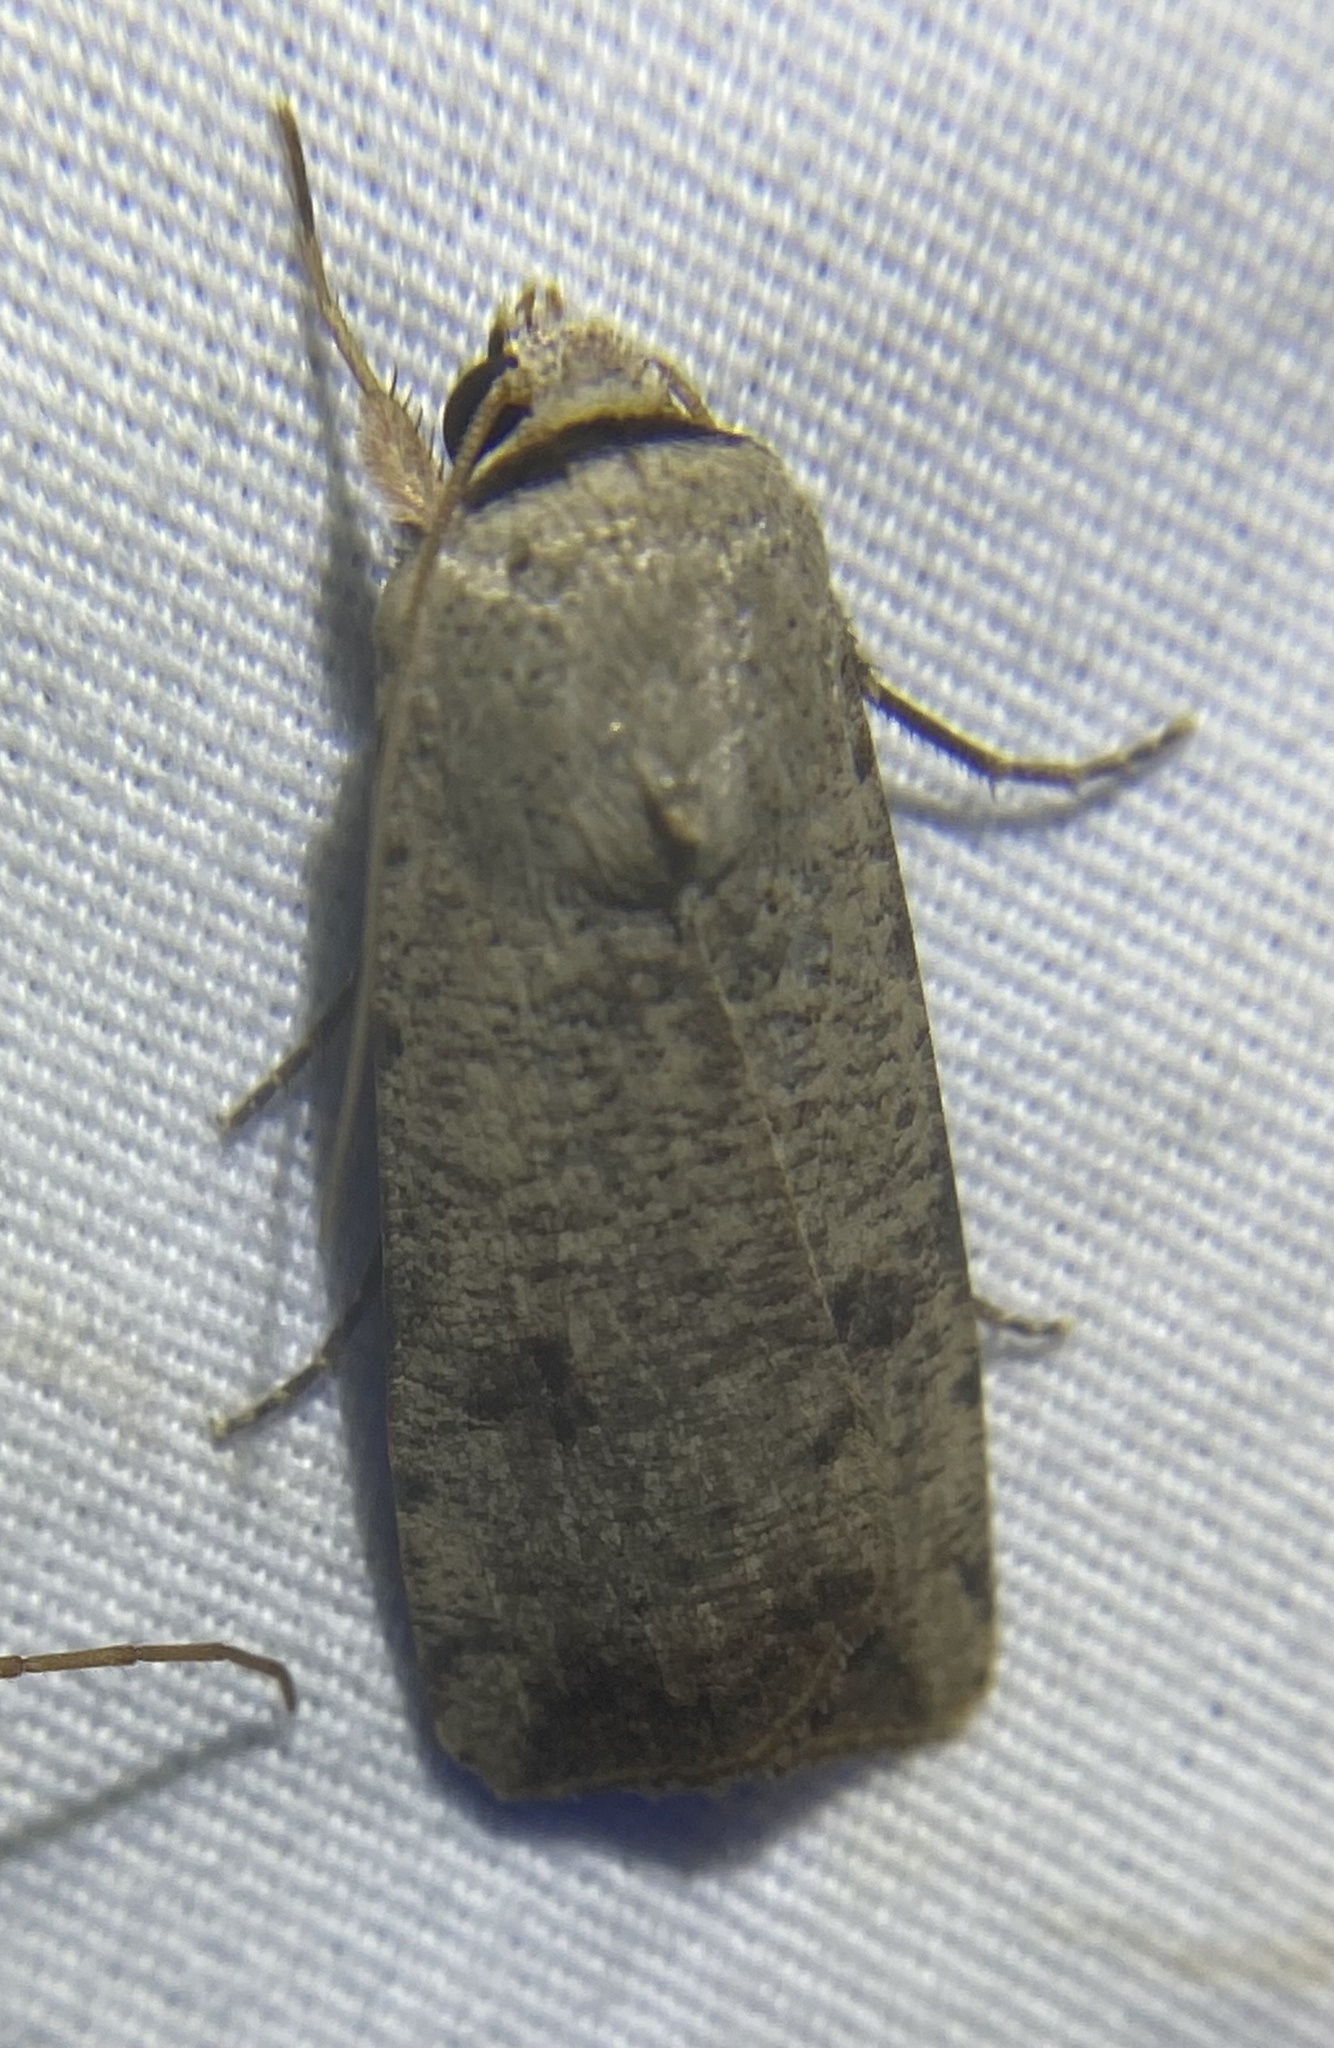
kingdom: Animalia
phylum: Arthropoda
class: Insecta
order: Lepidoptera
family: Noctuidae
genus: Anicla
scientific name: Anicla infecta
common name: Green cutworm
